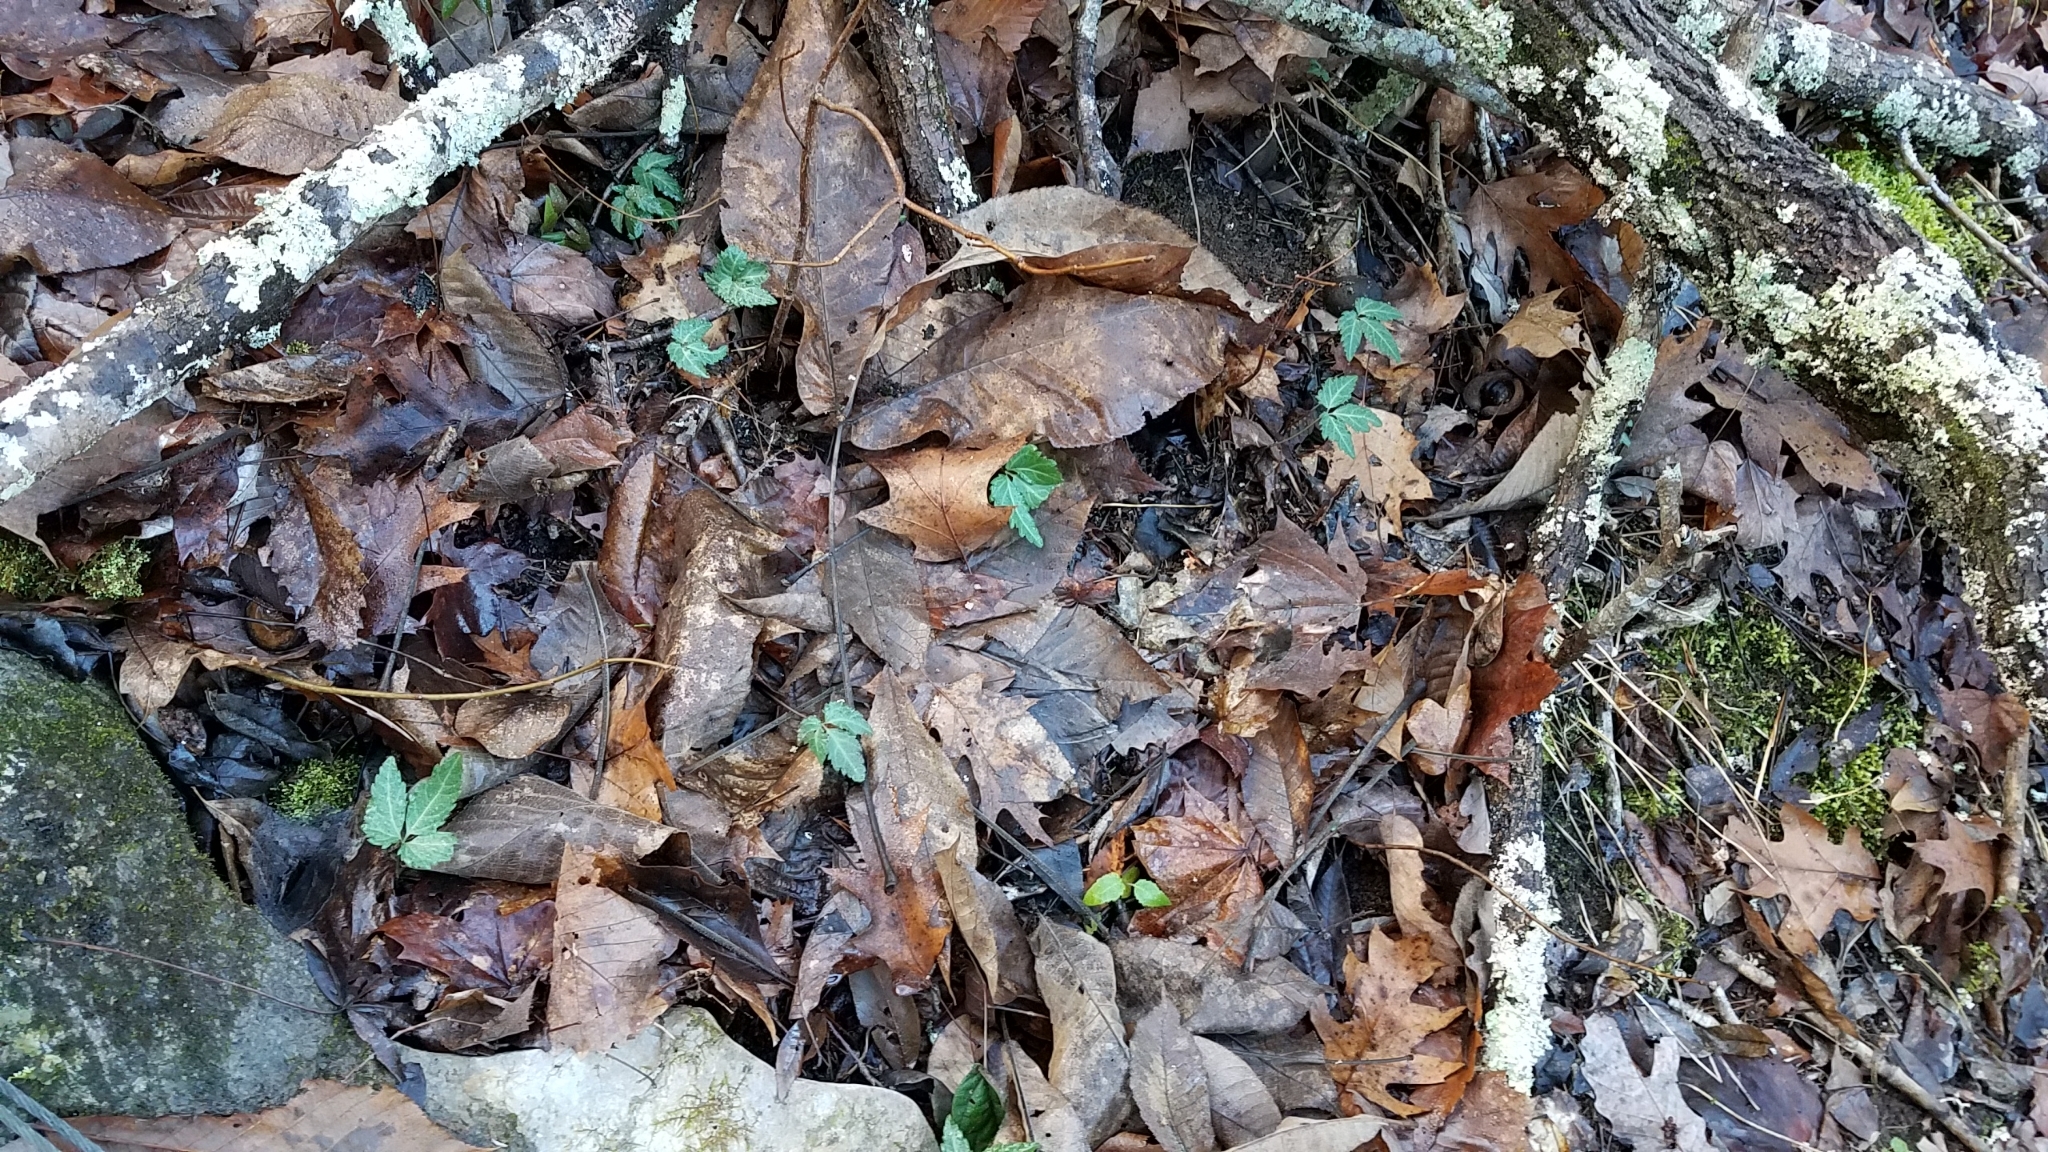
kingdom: Plantae
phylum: Tracheophyta
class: Magnoliopsida
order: Brassicales
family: Brassicaceae
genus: Cardamine
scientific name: Cardamine diphylla
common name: Broad-leaved toothwort
